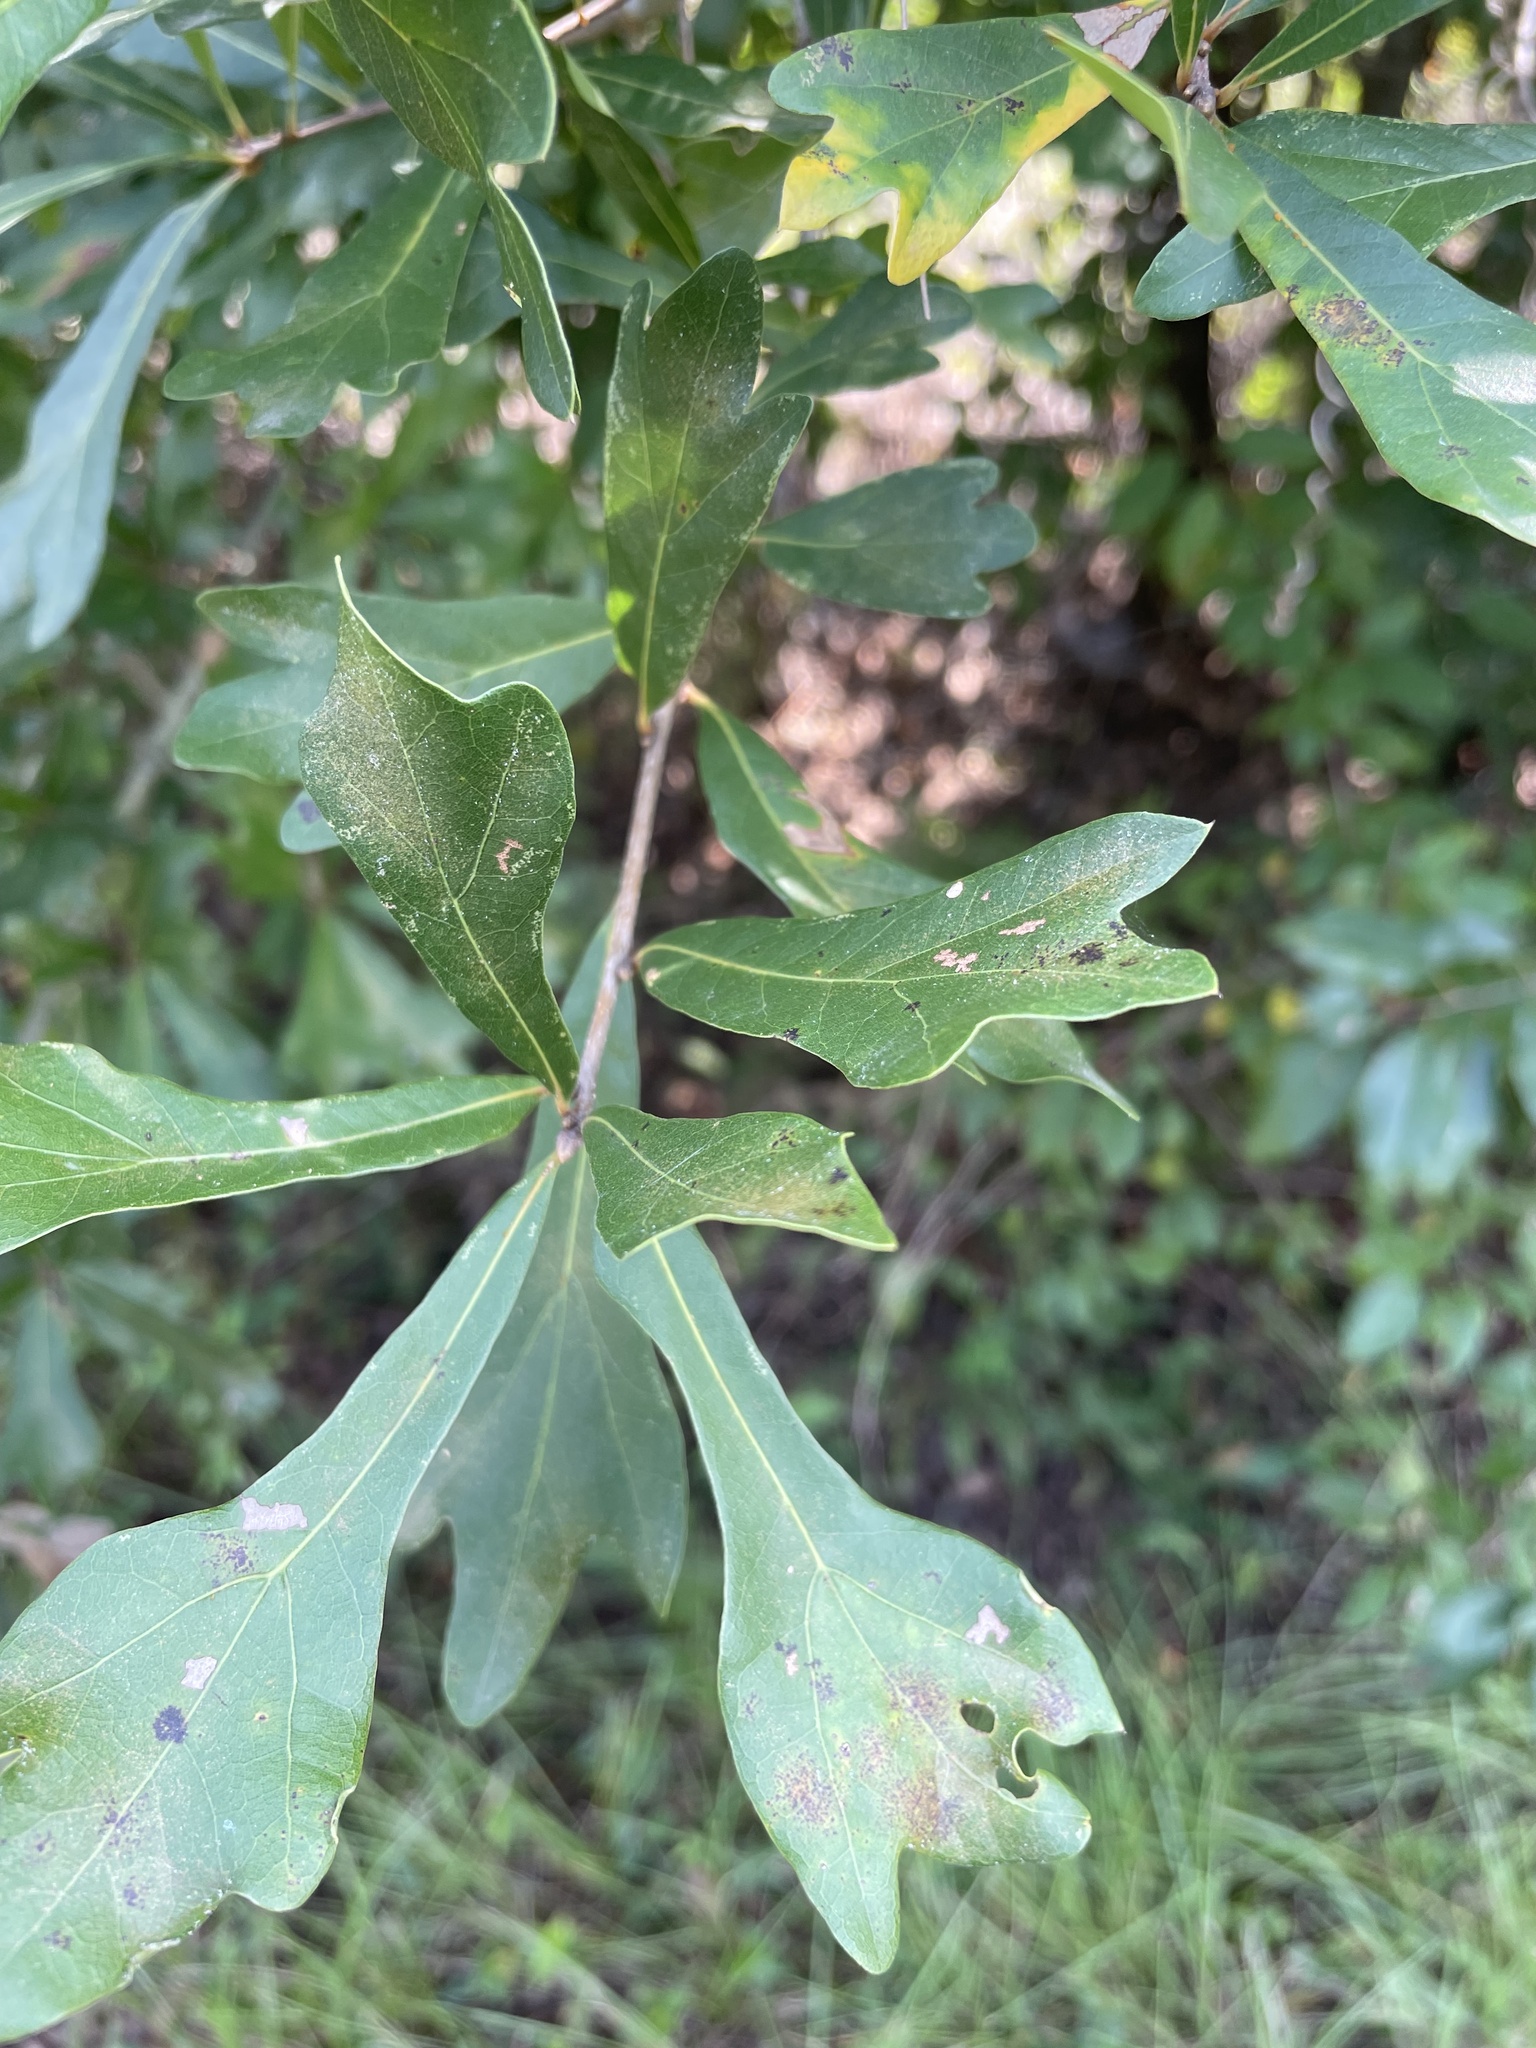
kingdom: Plantae
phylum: Tracheophyta
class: Magnoliopsida
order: Fagales
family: Fagaceae
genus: Quercus
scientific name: Quercus nigra
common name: Water oak
